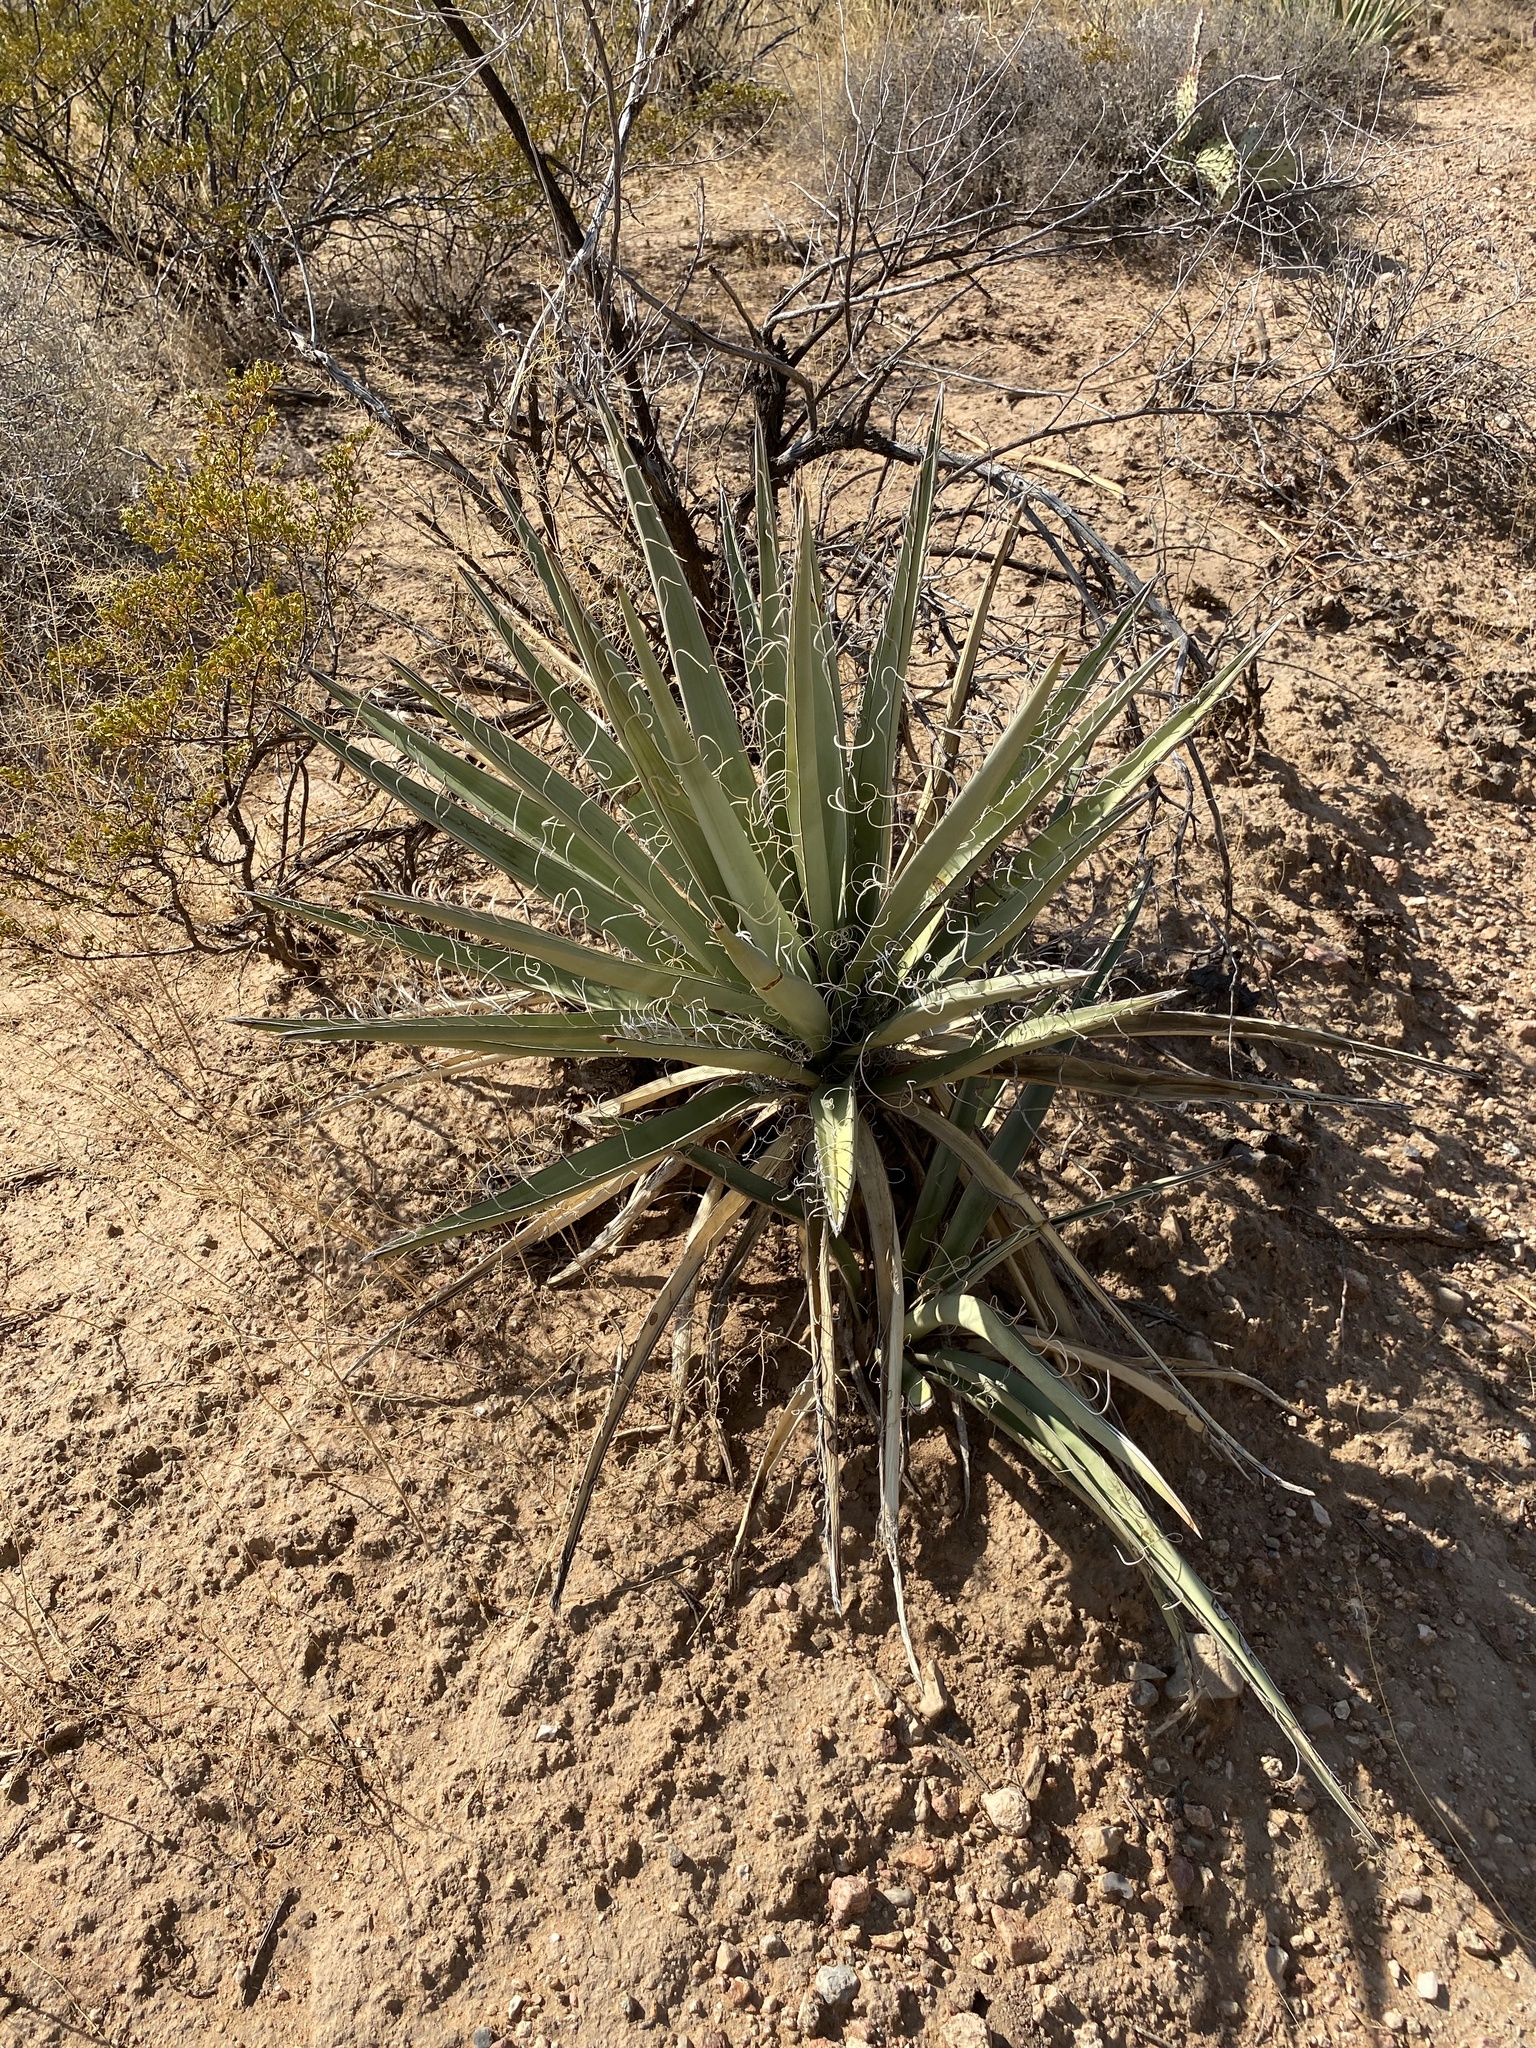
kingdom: Plantae
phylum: Tracheophyta
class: Liliopsida
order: Asparagales
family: Asparagaceae
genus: Yucca
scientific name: Yucca baccata
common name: Banana yucca
